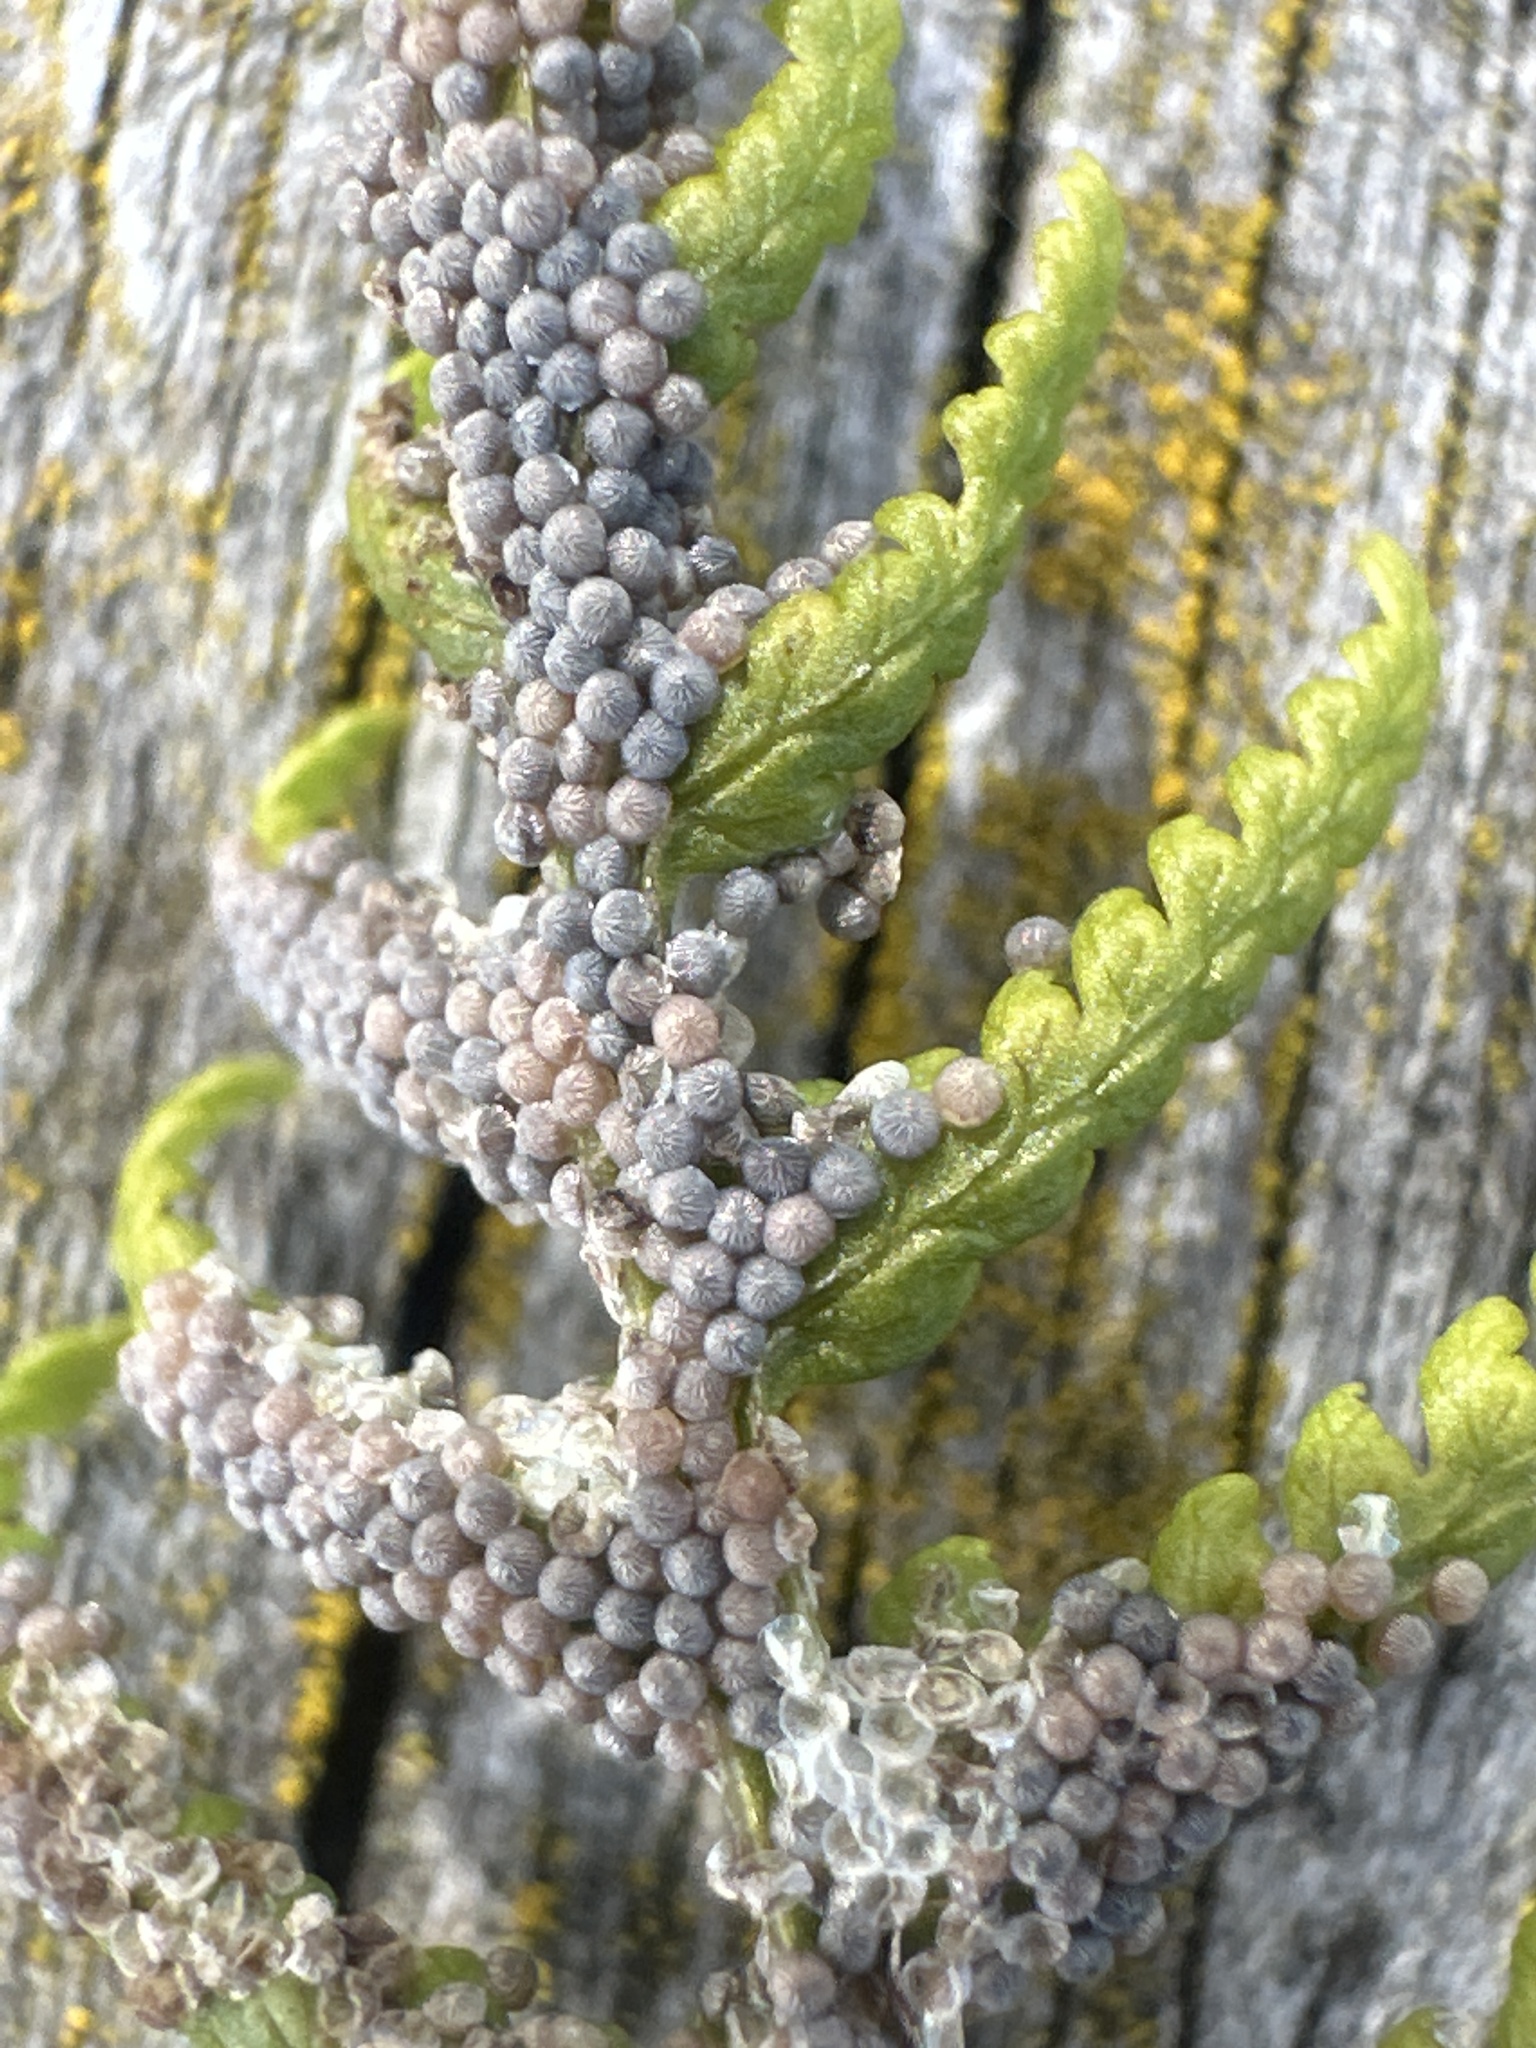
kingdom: Animalia
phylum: Arthropoda
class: Insecta
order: Lepidoptera
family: Noctuidae
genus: Noctua
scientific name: Noctua pronuba
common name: Large yellow underwing
